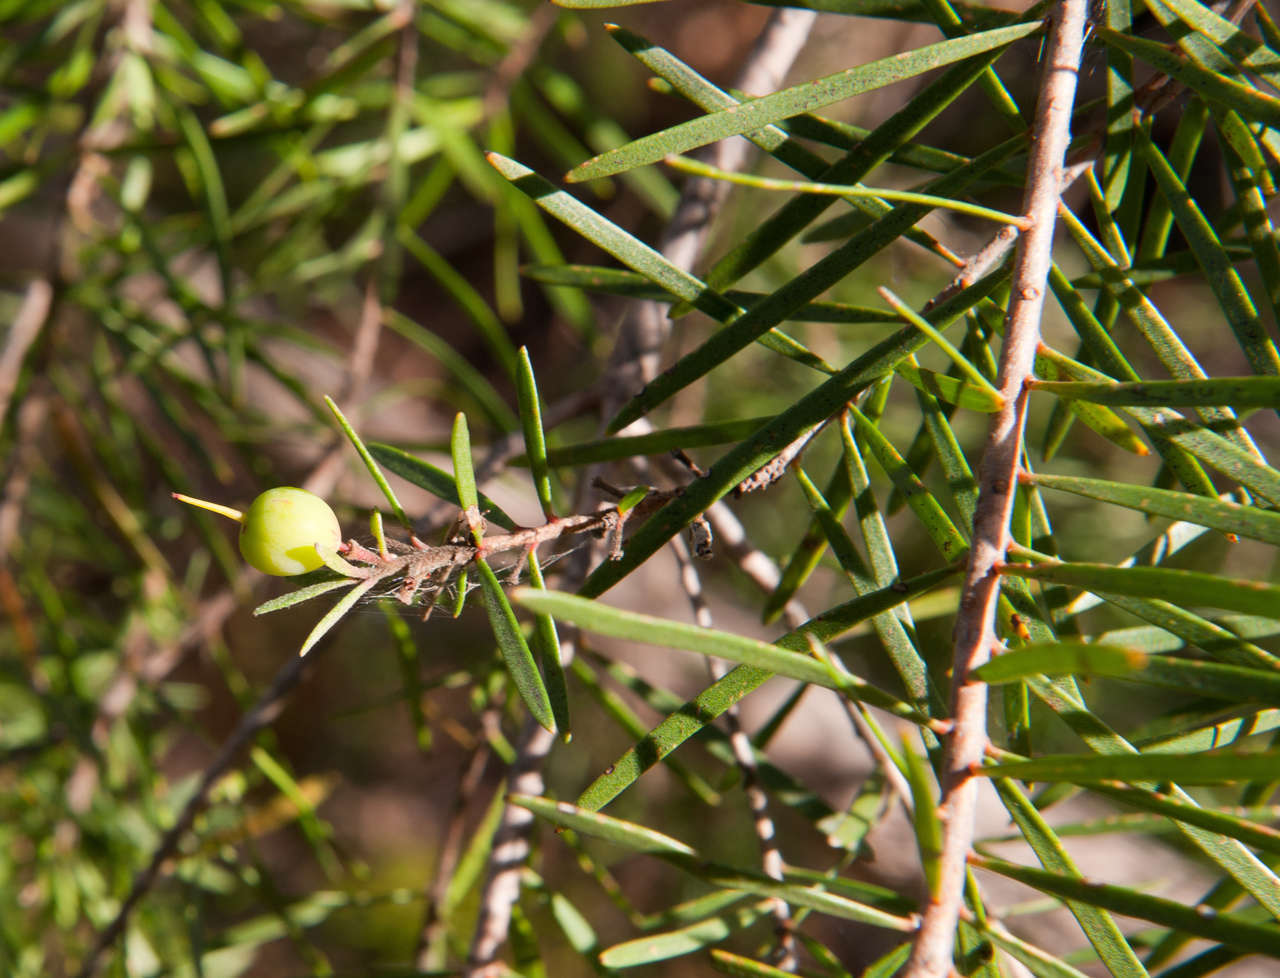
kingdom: Plantae
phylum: Tracheophyta
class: Magnoliopsida
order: Proteales
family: Proteaceae
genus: Persoonia
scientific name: Persoonia linearis
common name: Narrow-leaf geebung
